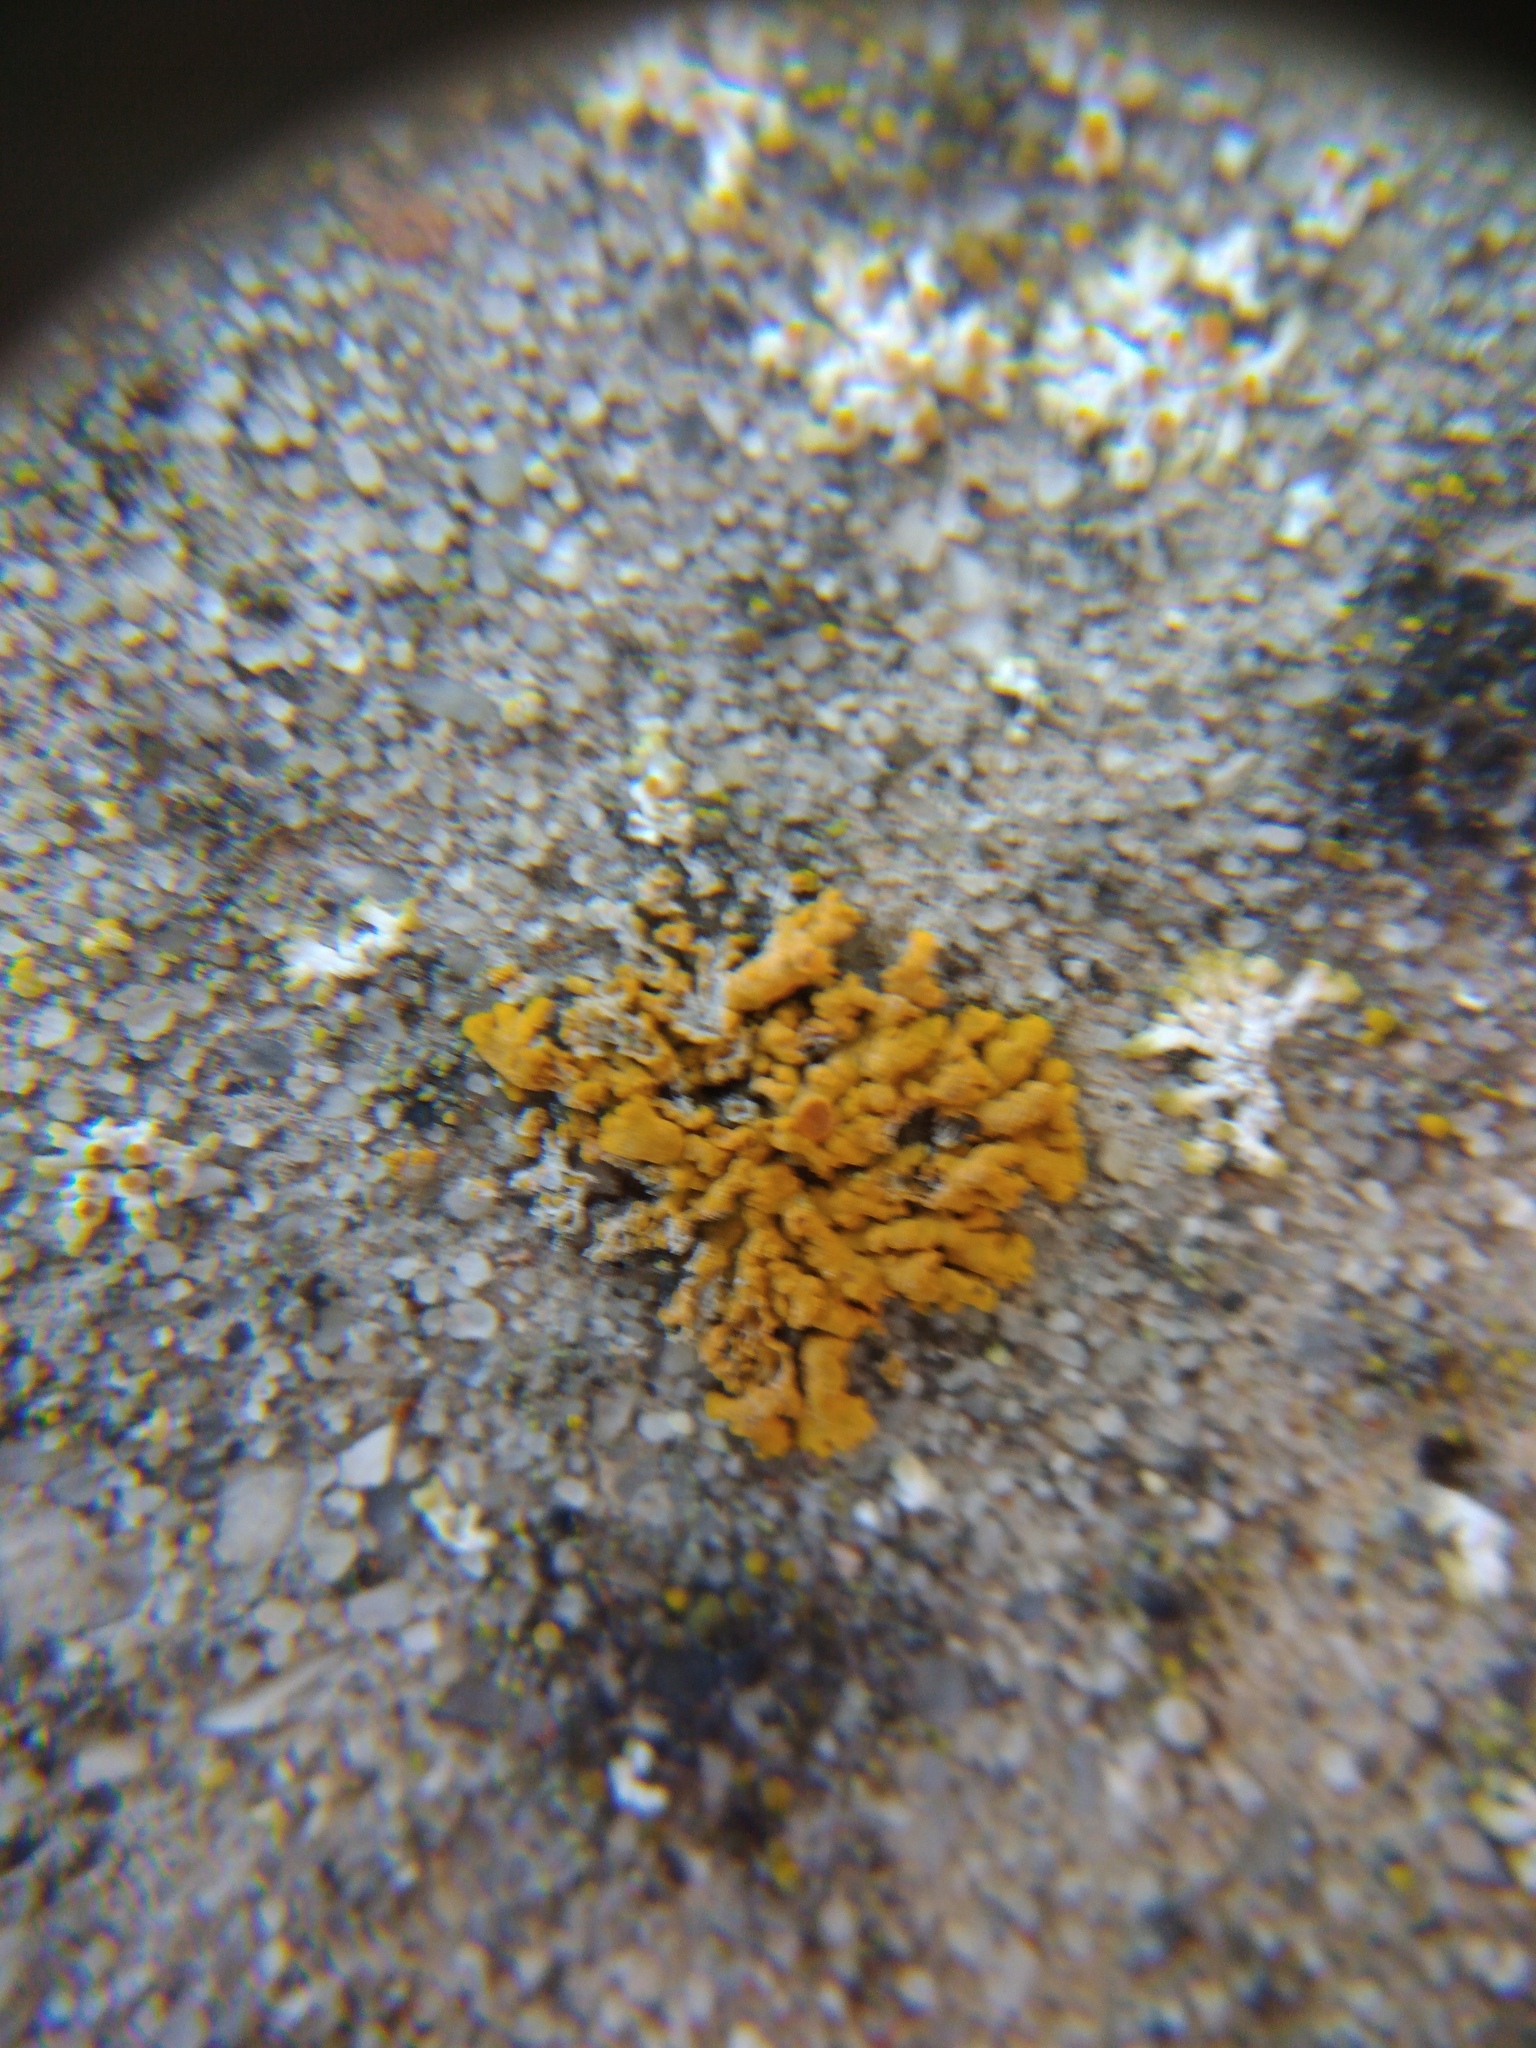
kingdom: Fungi
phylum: Ascomycota
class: Lecanoromycetes
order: Teloschistales
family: Teloschistaceae
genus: Xanthoria
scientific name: Xanthoria elegans
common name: Elegant sunburst lichen
